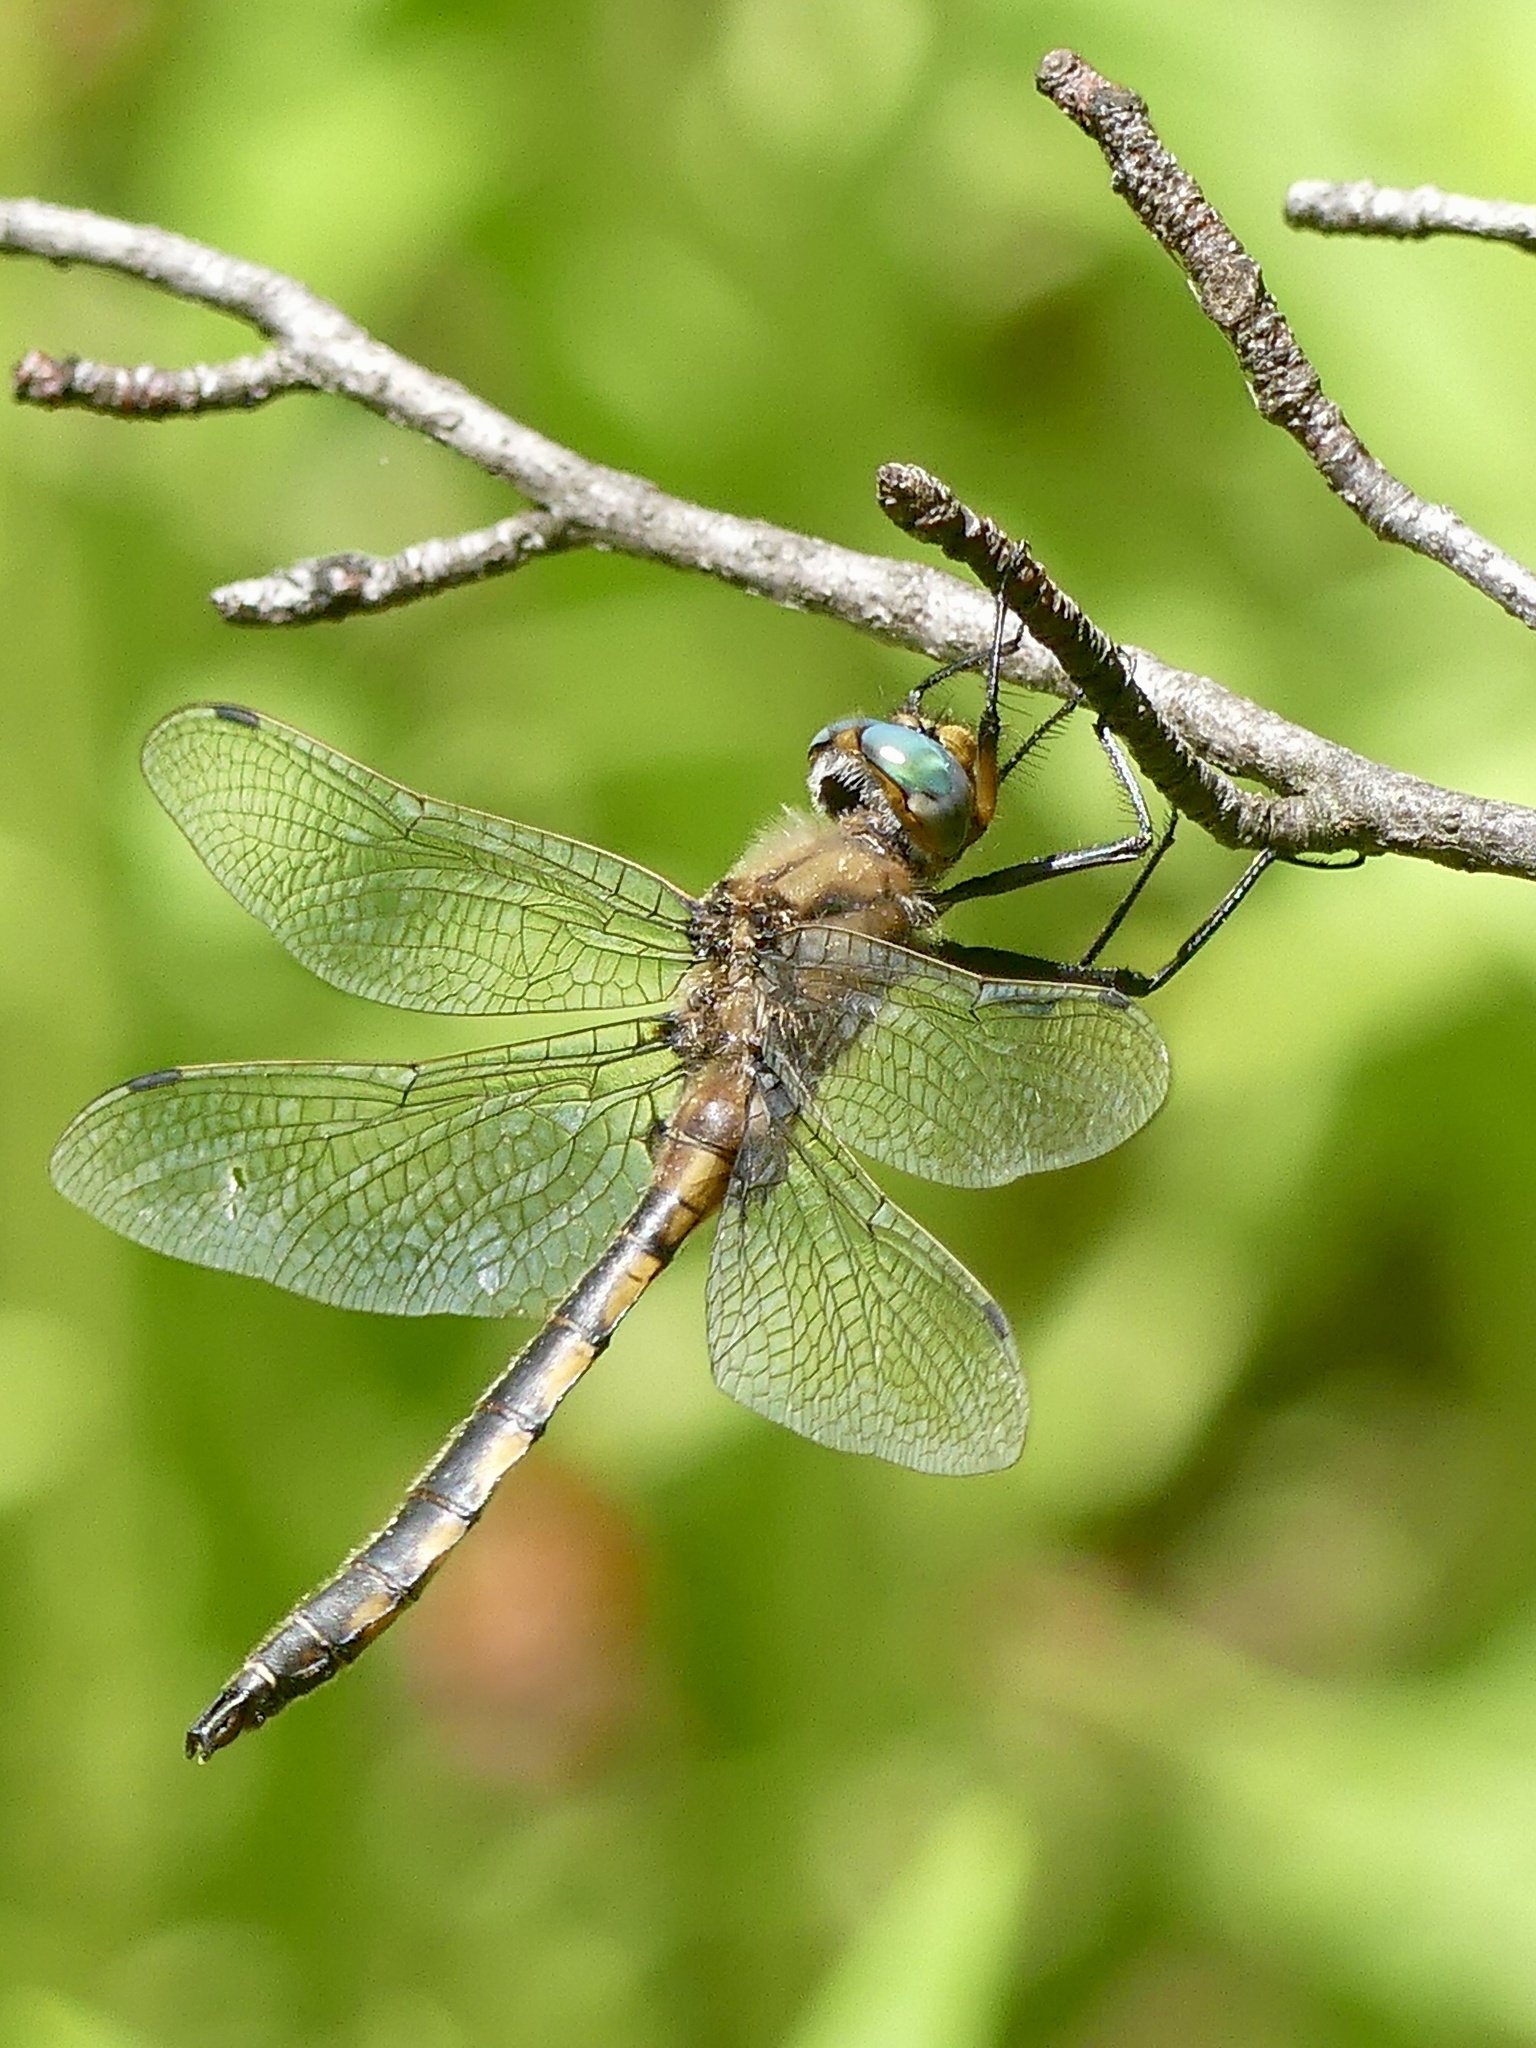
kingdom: Animalia
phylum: Arthropoda
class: Insecta
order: Odonata
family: Corduliidae
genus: Epitheca
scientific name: Epitheca canis
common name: Beaverpond baskettail
